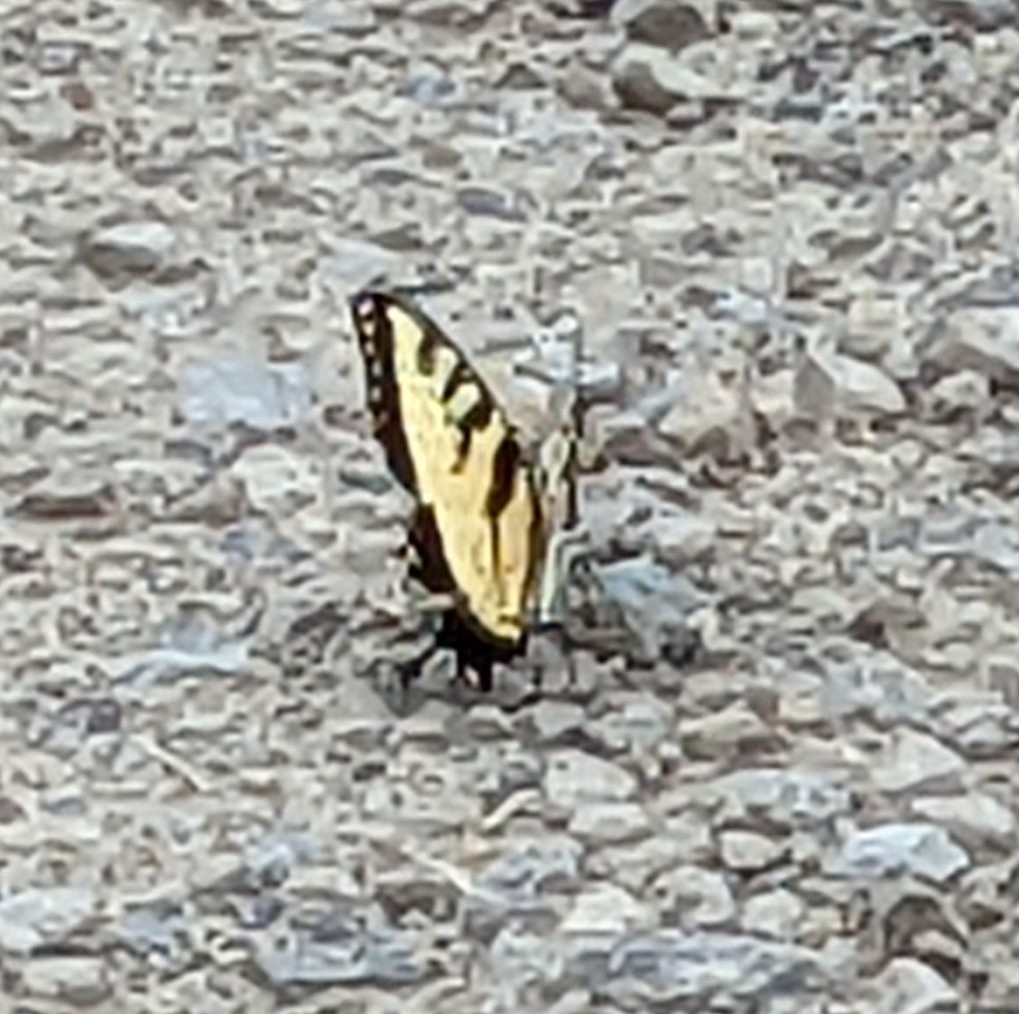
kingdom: Animalia
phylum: Arthropoda
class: Insecta
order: Lepidoptera
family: Papilionidae
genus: Papilio
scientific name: Papilio glaucus
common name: Tiger swallowtail
